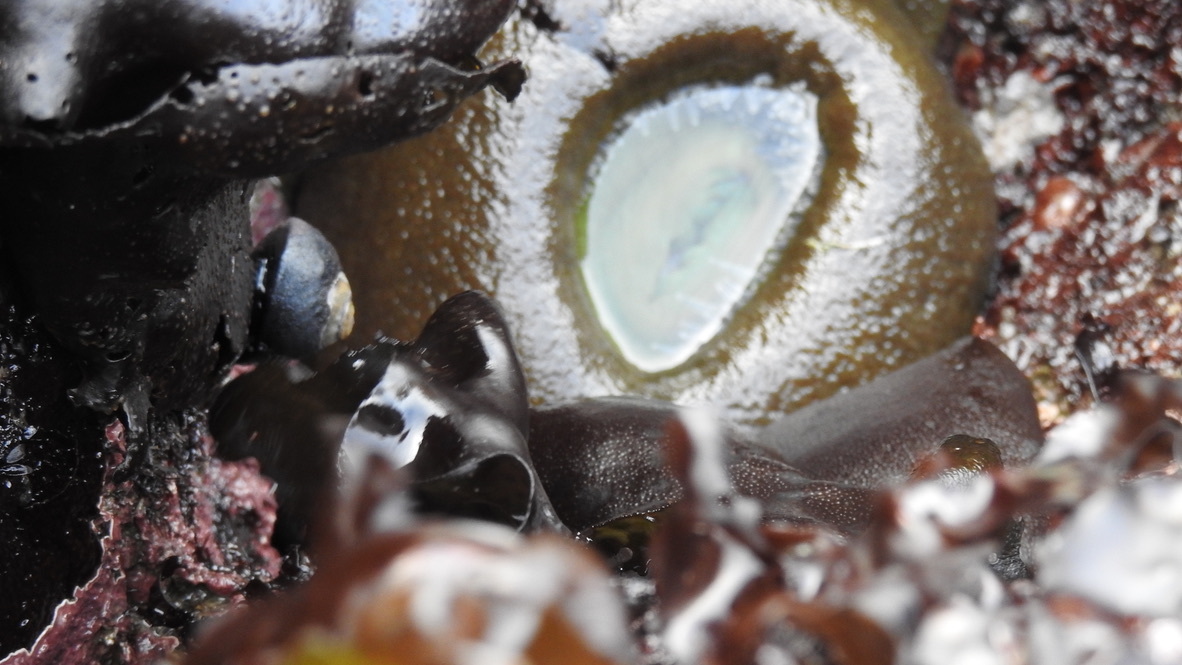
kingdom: Animalia
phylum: Cnidaria
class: Anthozoa
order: Actiniaria
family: Actiniidae
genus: Anthopleura
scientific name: Anthopleura xanthogrammica
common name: Giant green anemone
